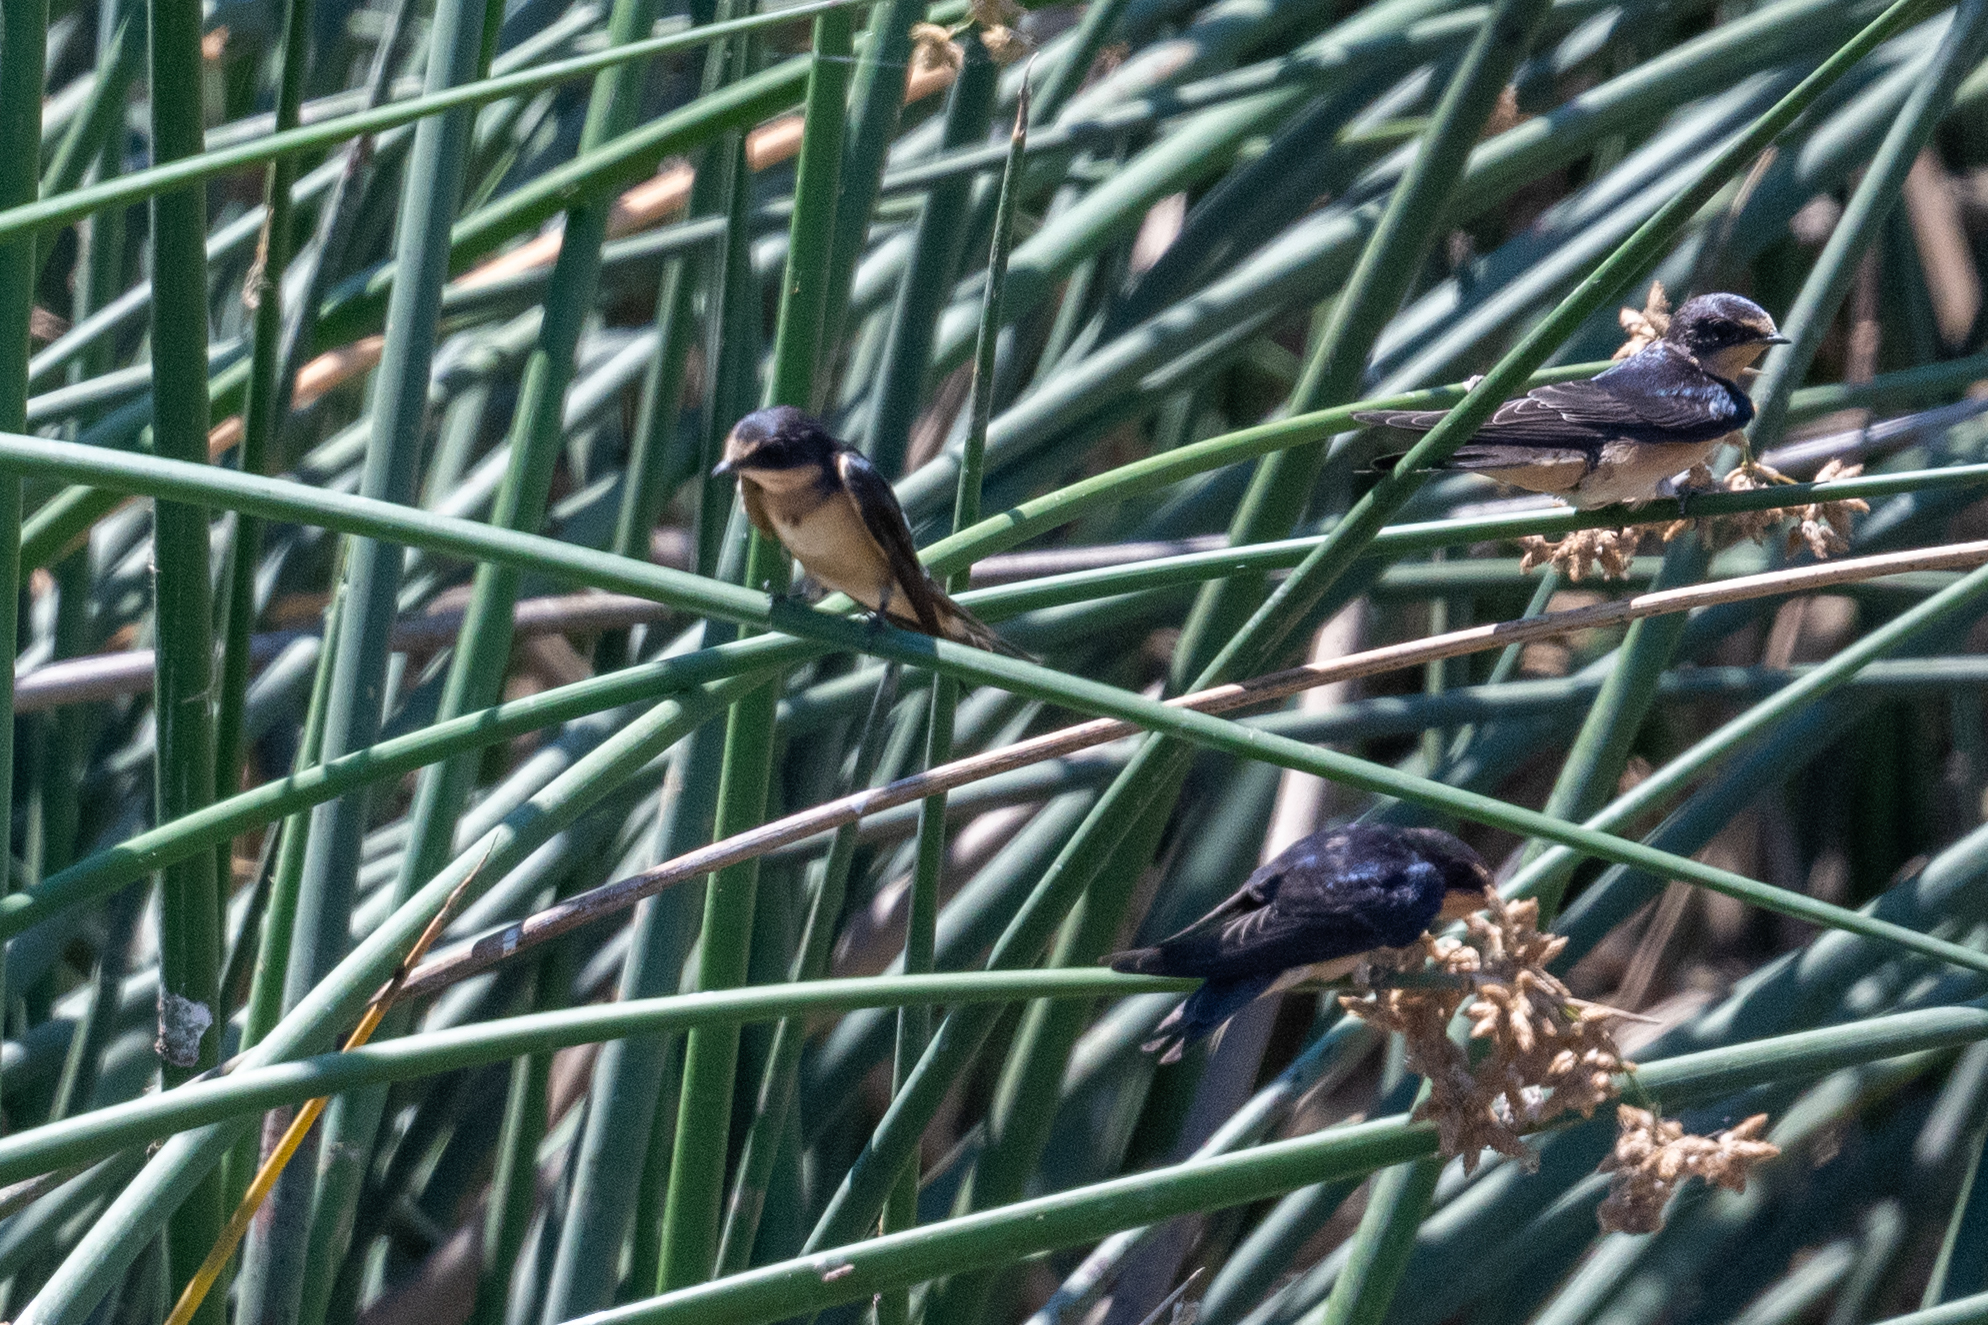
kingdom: Animalia
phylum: Chordata
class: Aves
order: Passeriformes
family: Hirundinidae
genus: Hirundo
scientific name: Hirundo rustica
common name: Barn swallow
